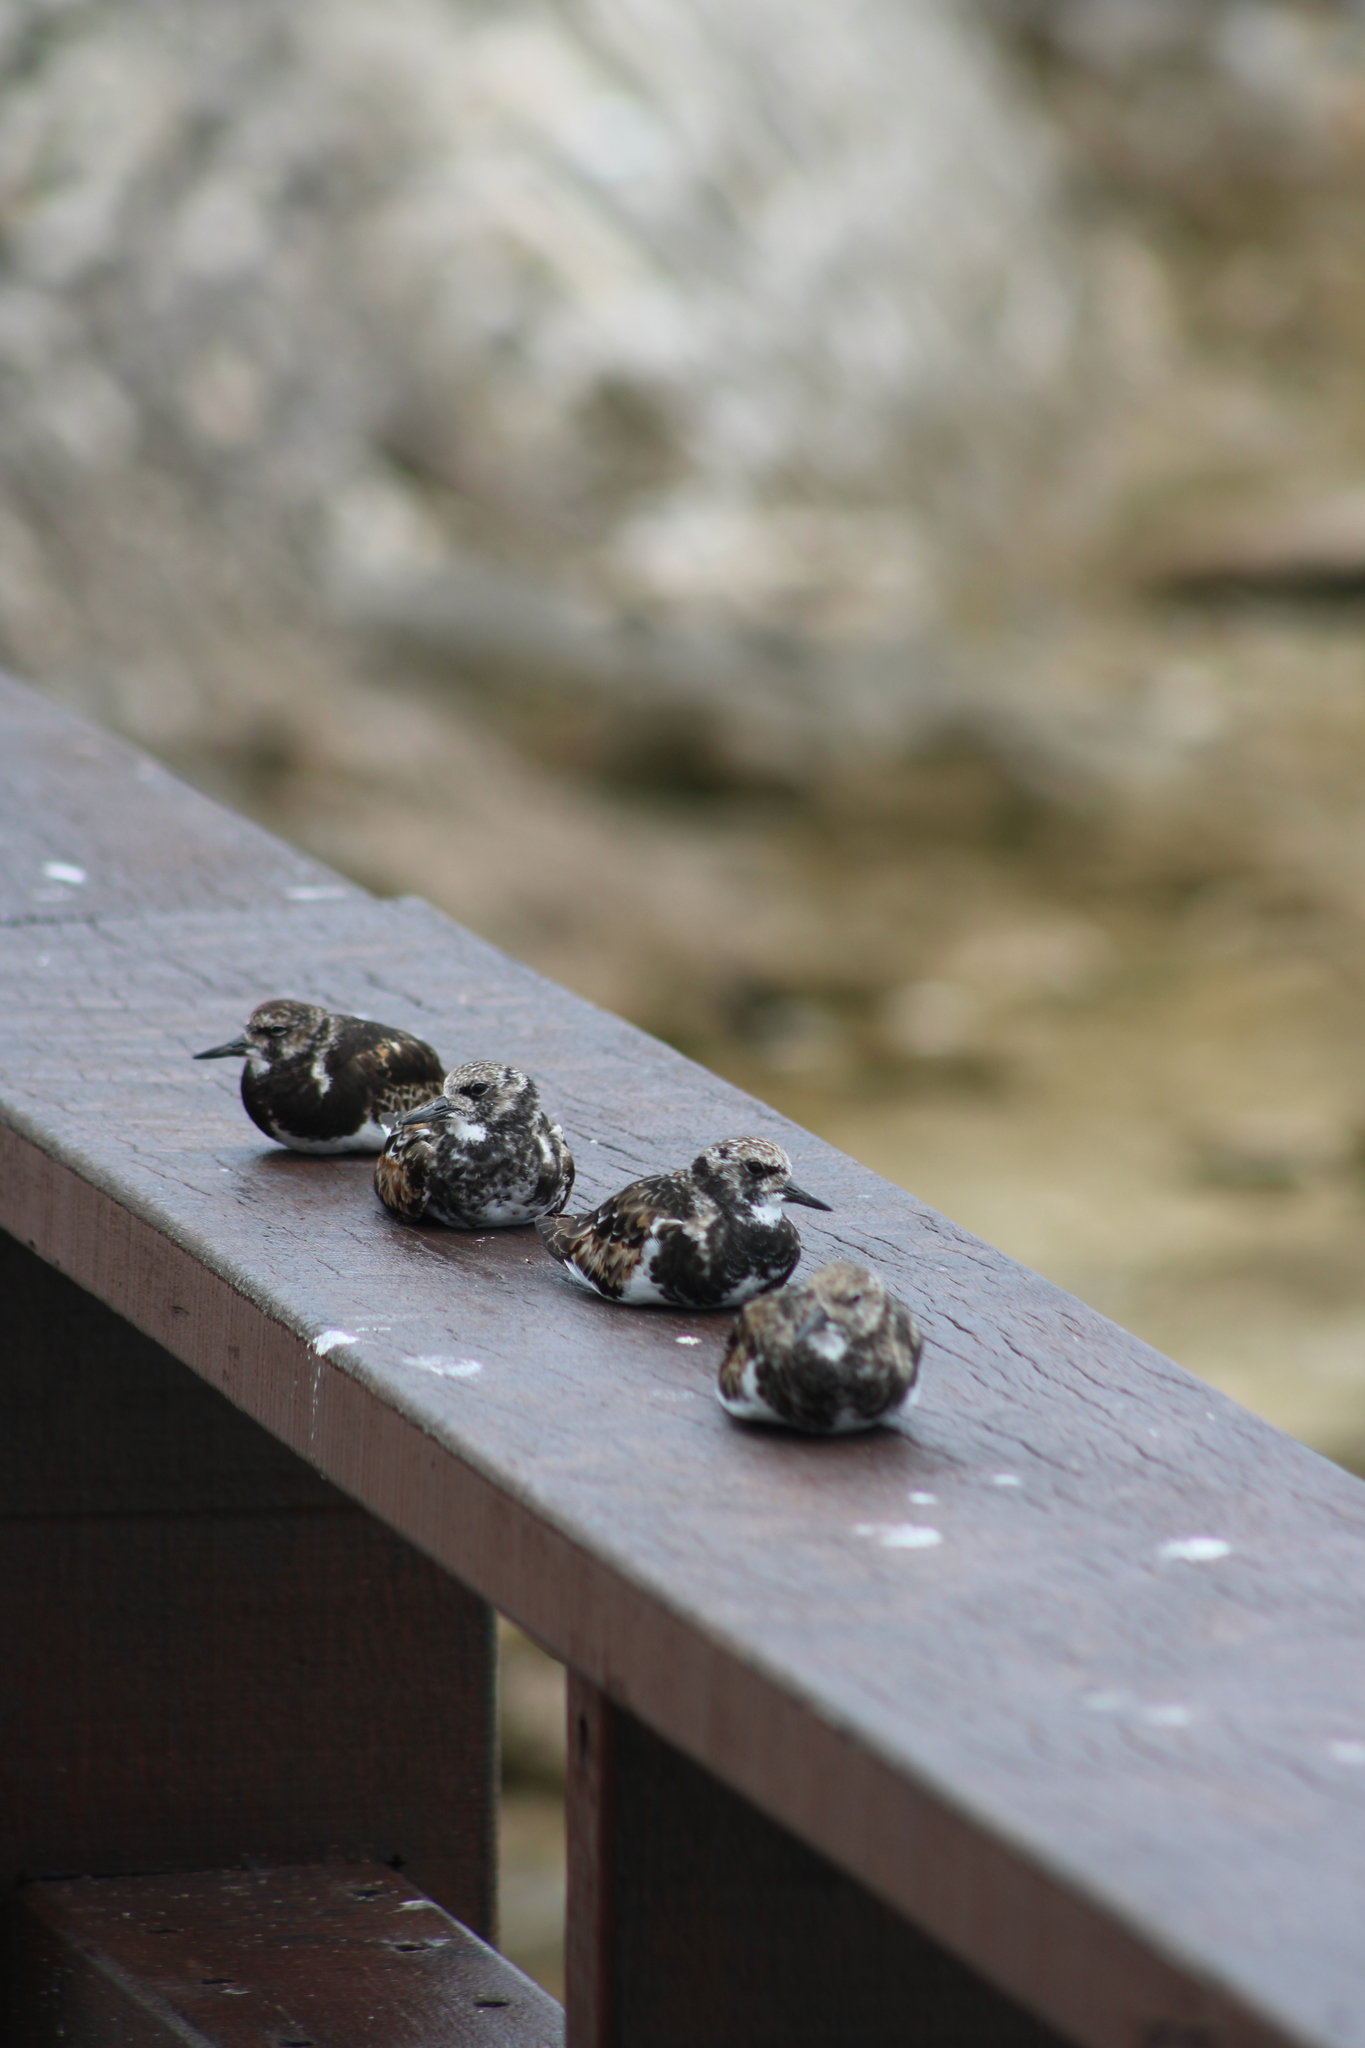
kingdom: Animalia
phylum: Chordata
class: Aves
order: Charadriiformes
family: Scolopacidae
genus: Arenaria
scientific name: Arenaria interpres
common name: Ruddy turnstone
